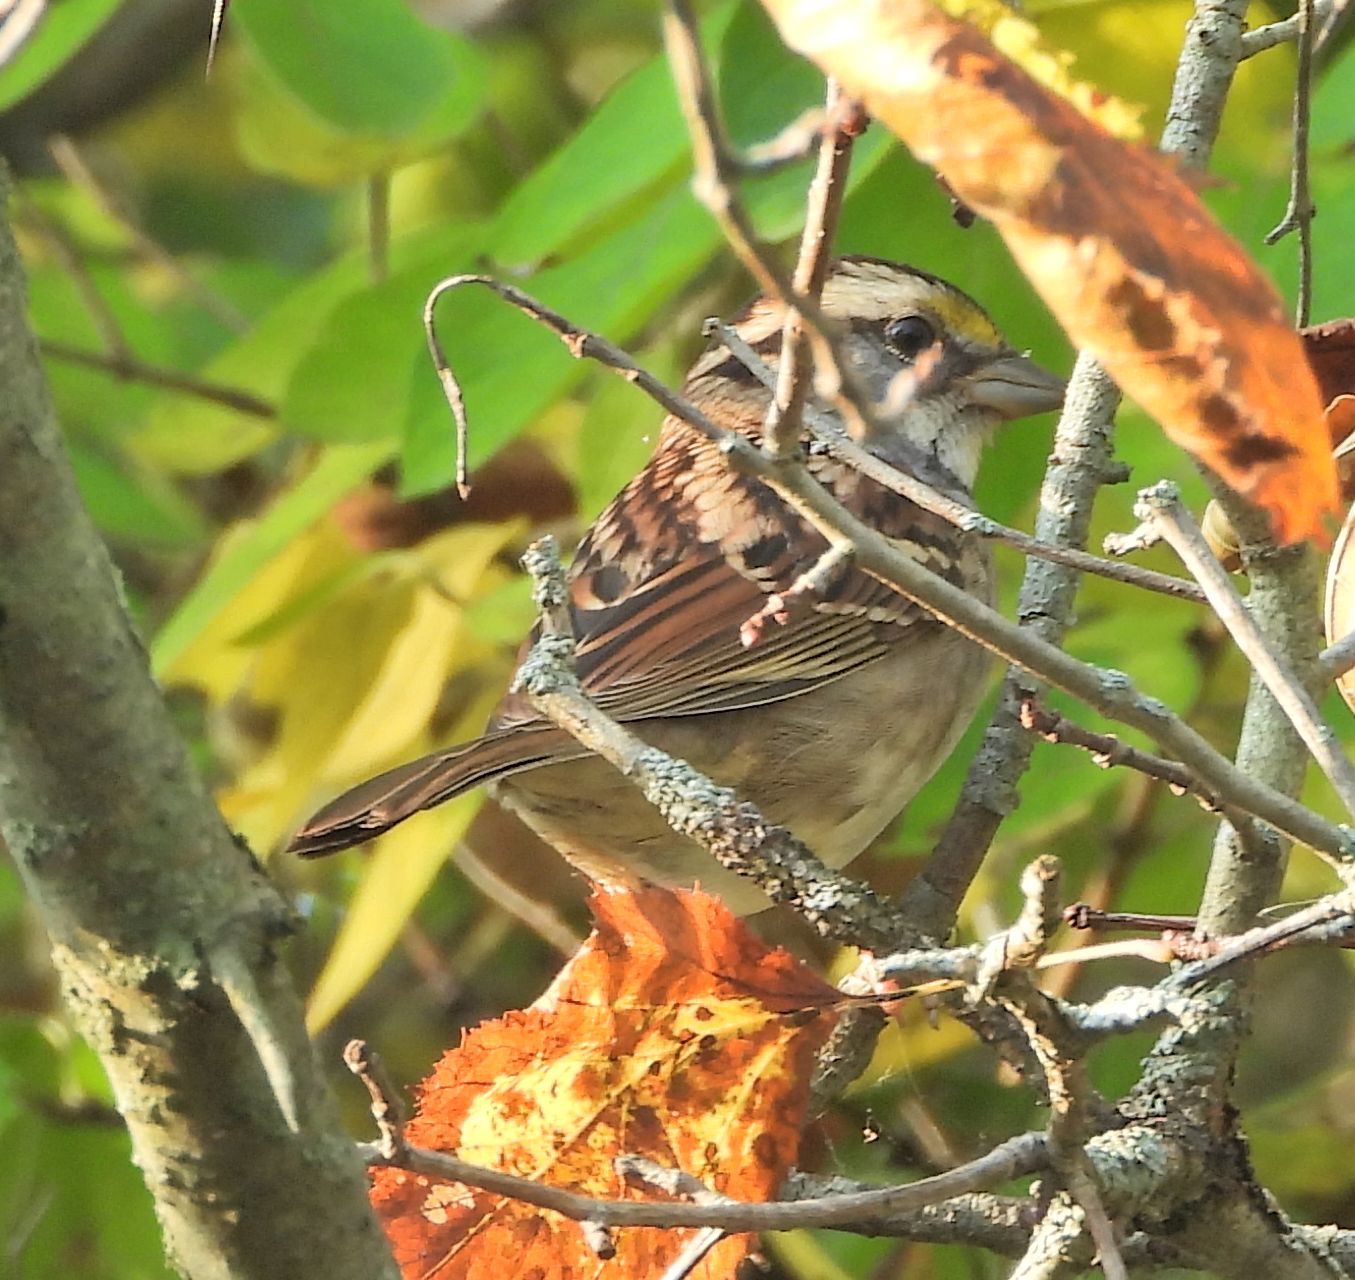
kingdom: Animalia
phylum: Chordata
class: Aves
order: Passeriformes
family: Passerellidae
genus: Zonotrichia
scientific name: Zonotrichia albicollis
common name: White-throated sparrow
